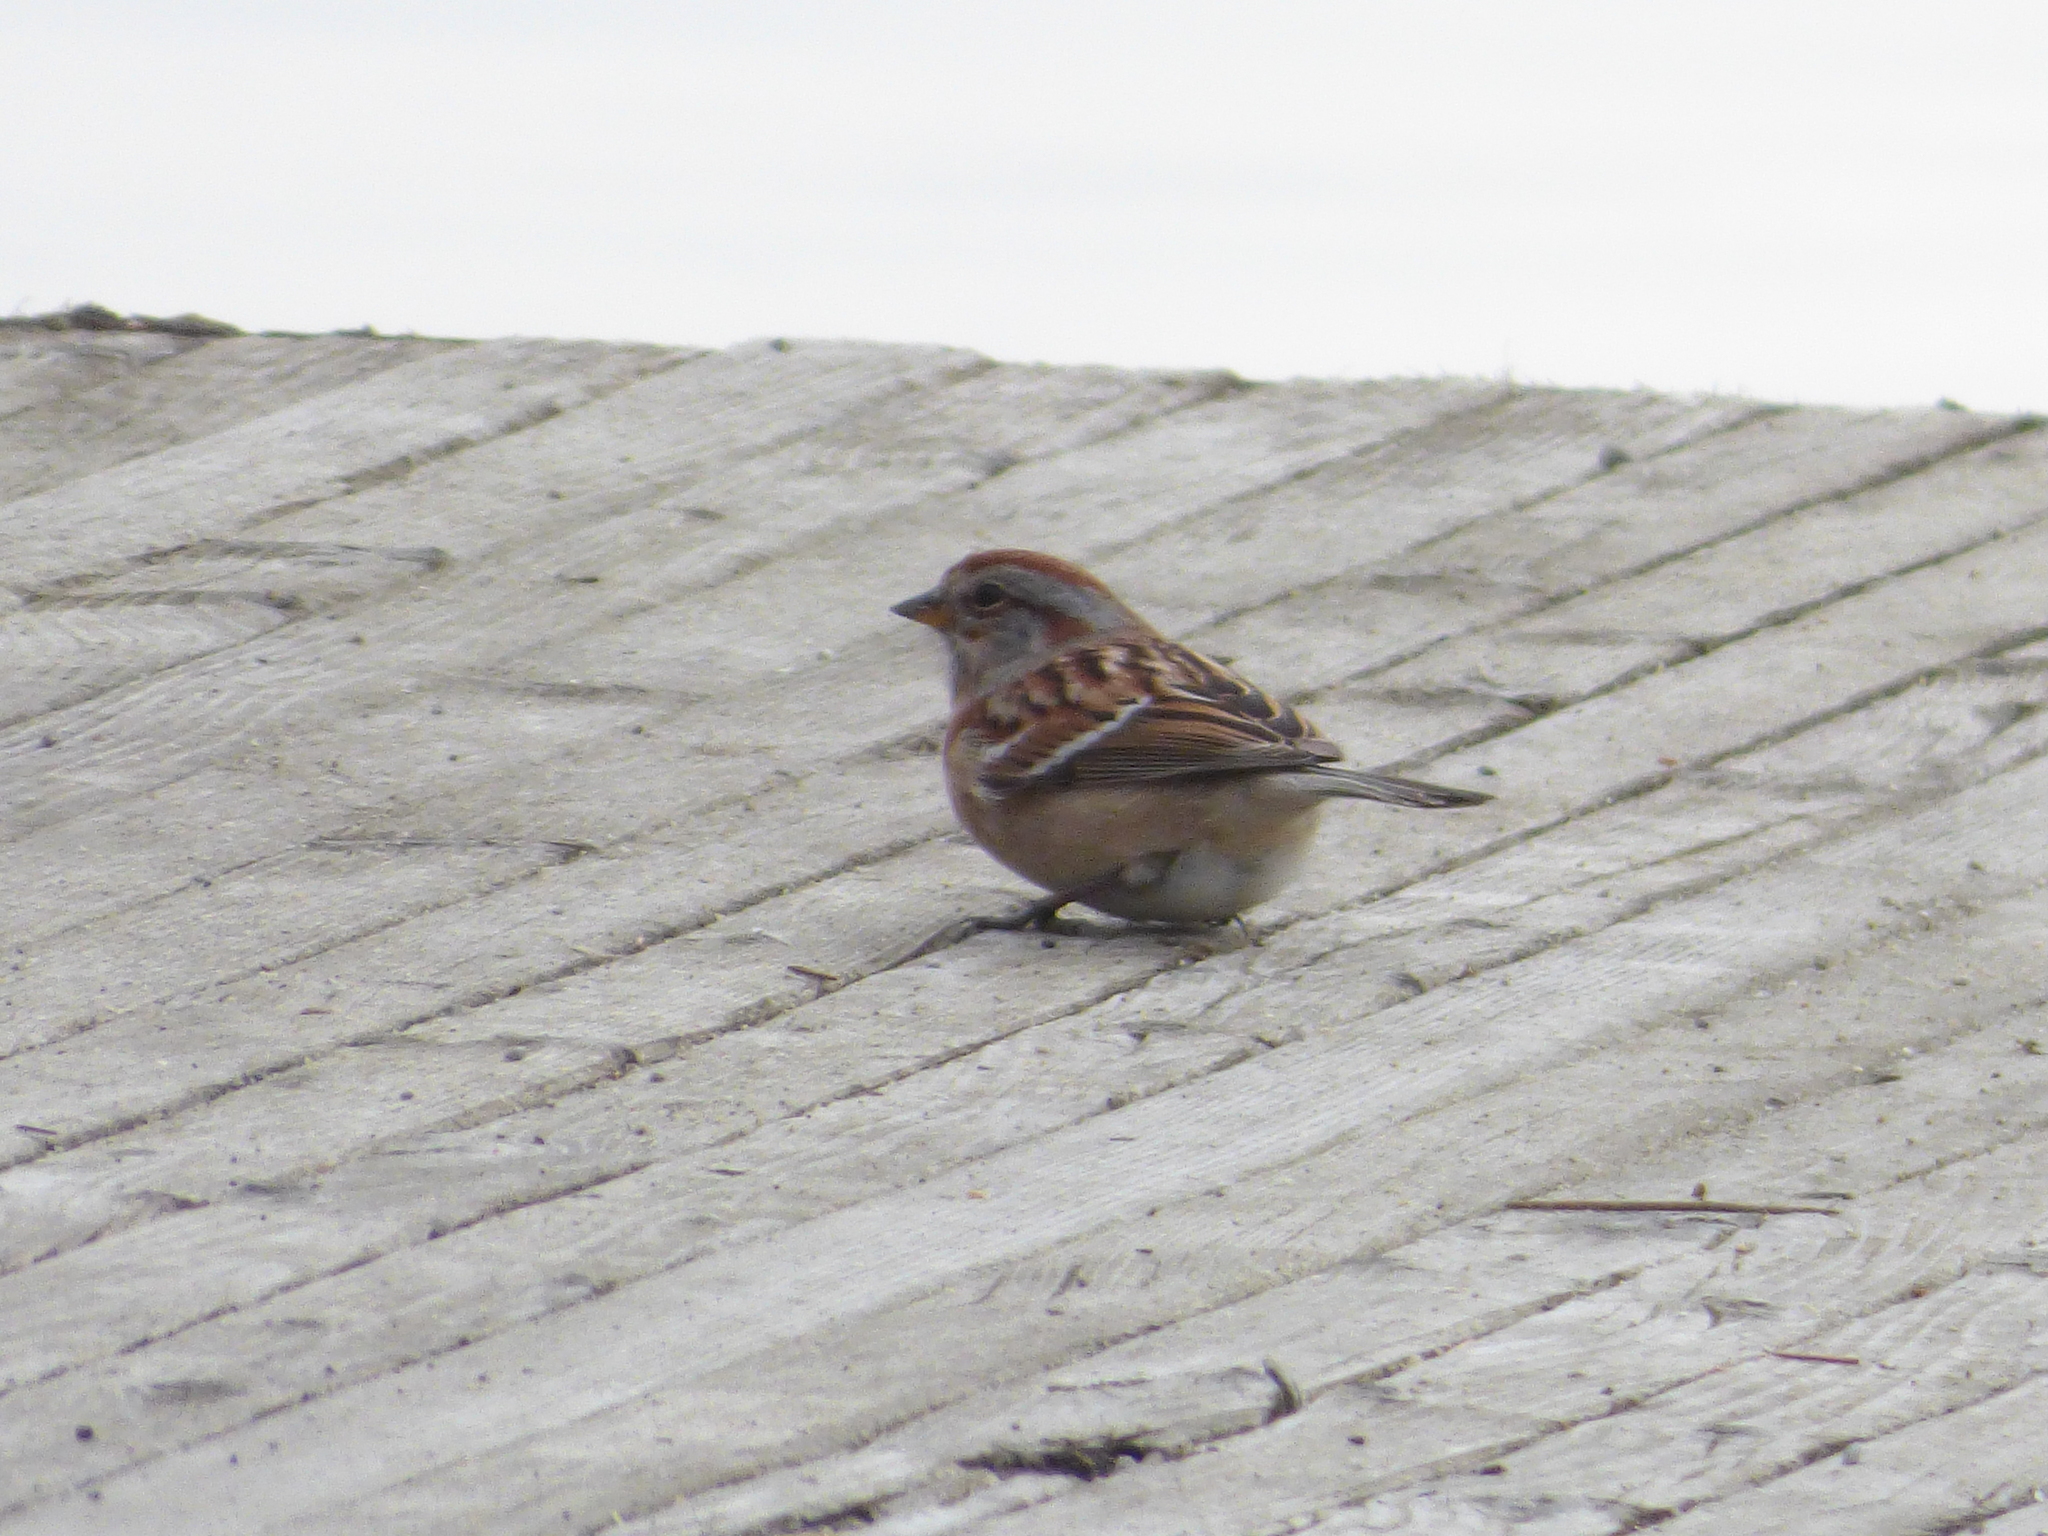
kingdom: Animalia
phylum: Chordata
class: Aves
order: Passeriformes
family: Passerellidae
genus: Spizelloides
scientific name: Spizelloides arborea
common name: American tree sparrow
